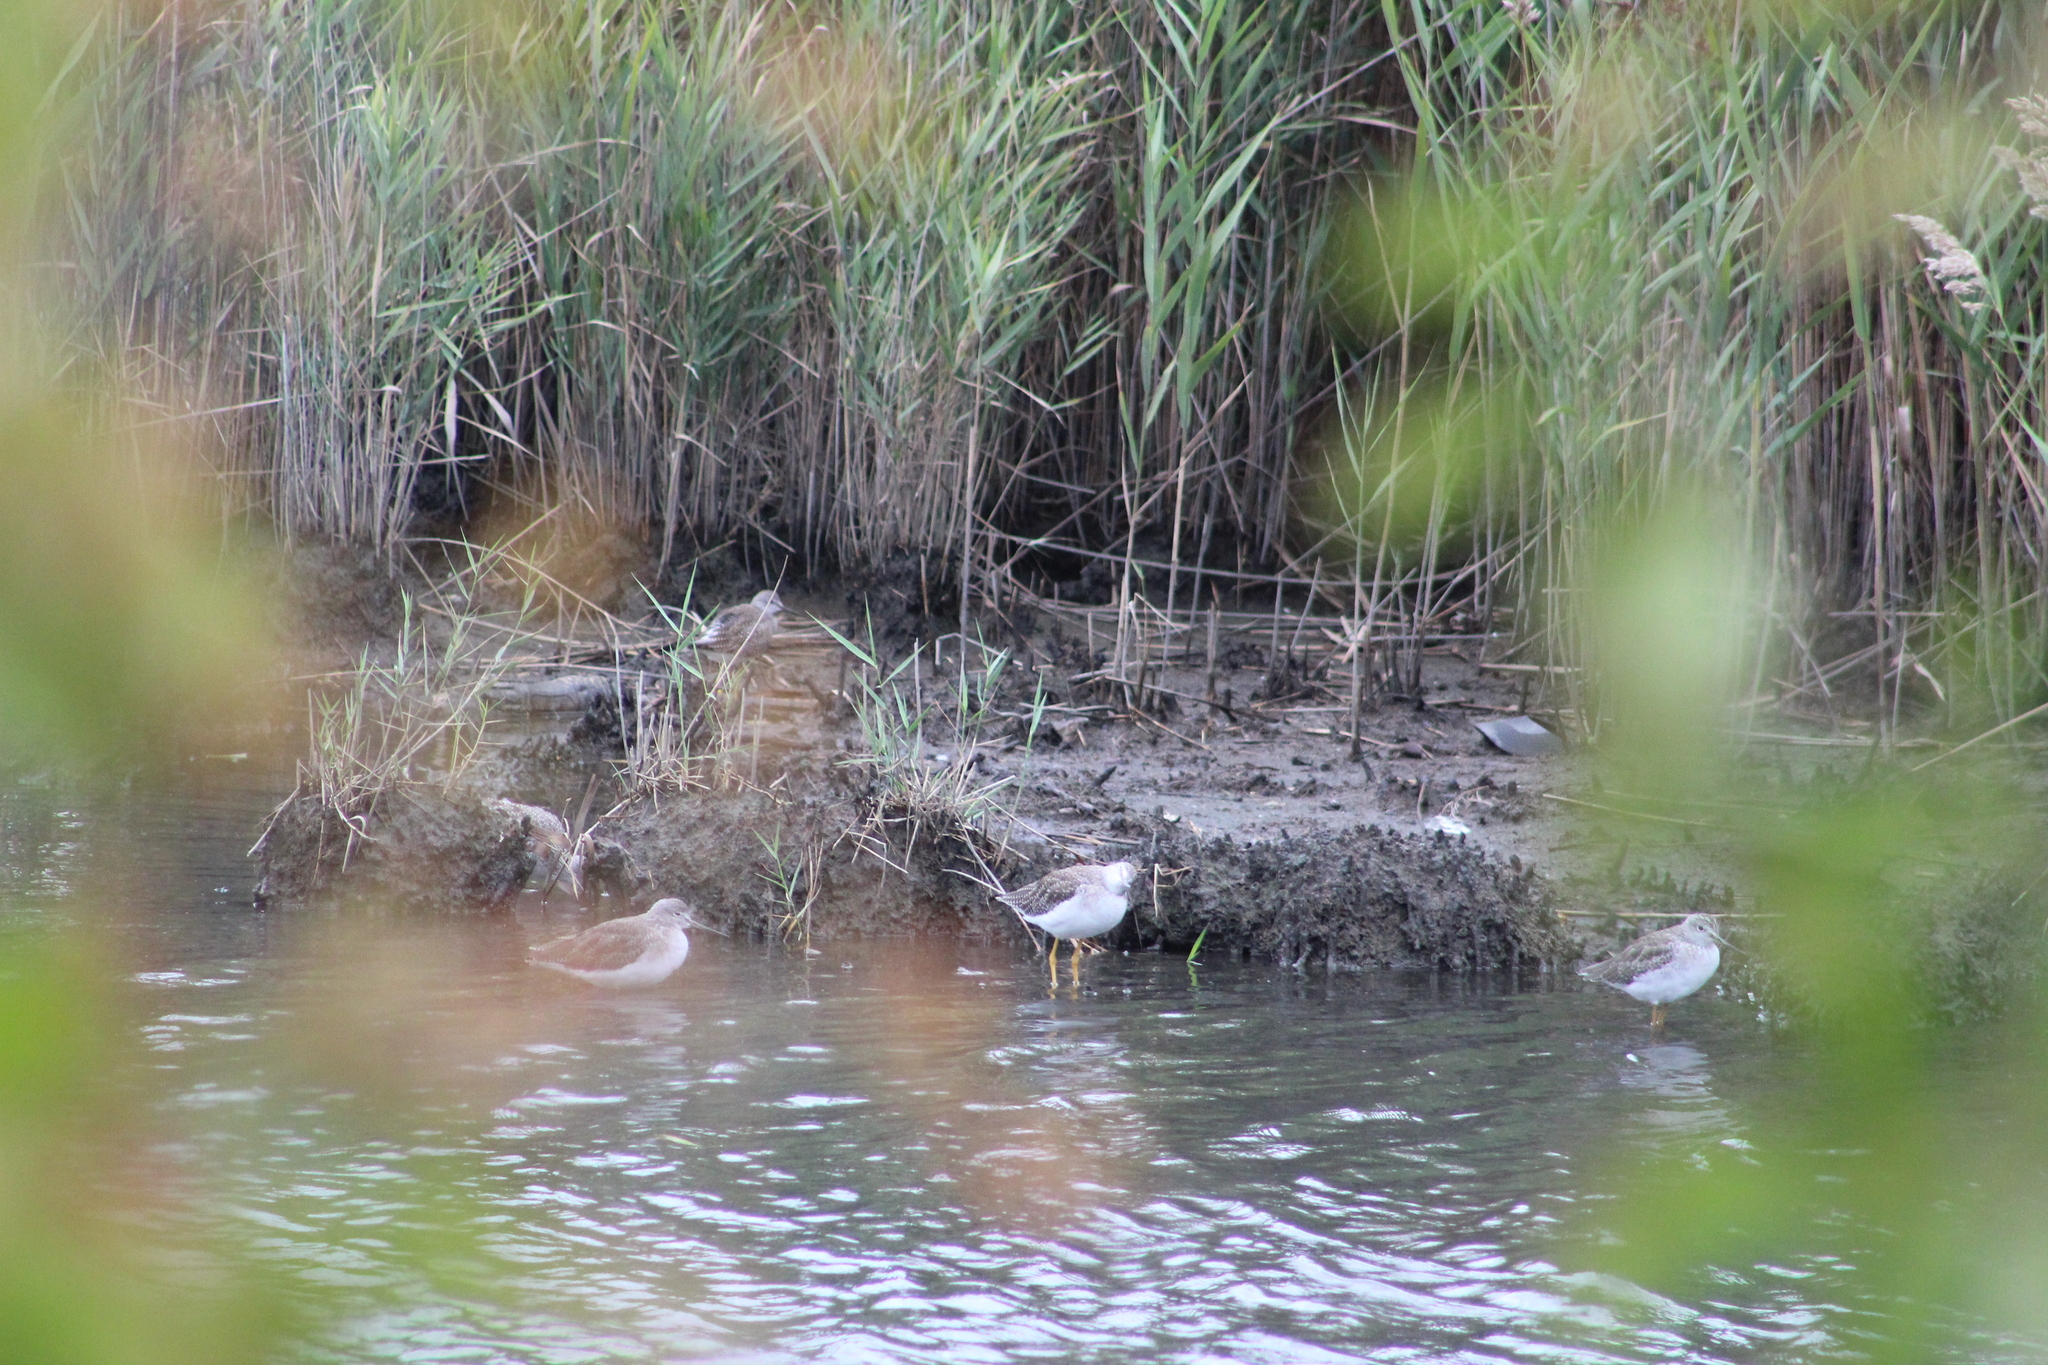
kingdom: Animalia
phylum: Chordata
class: Aves
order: Charadriiformes
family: Scolopacidae
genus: Tringa
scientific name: Tringa flavipes
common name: Lesser yellowlegs
